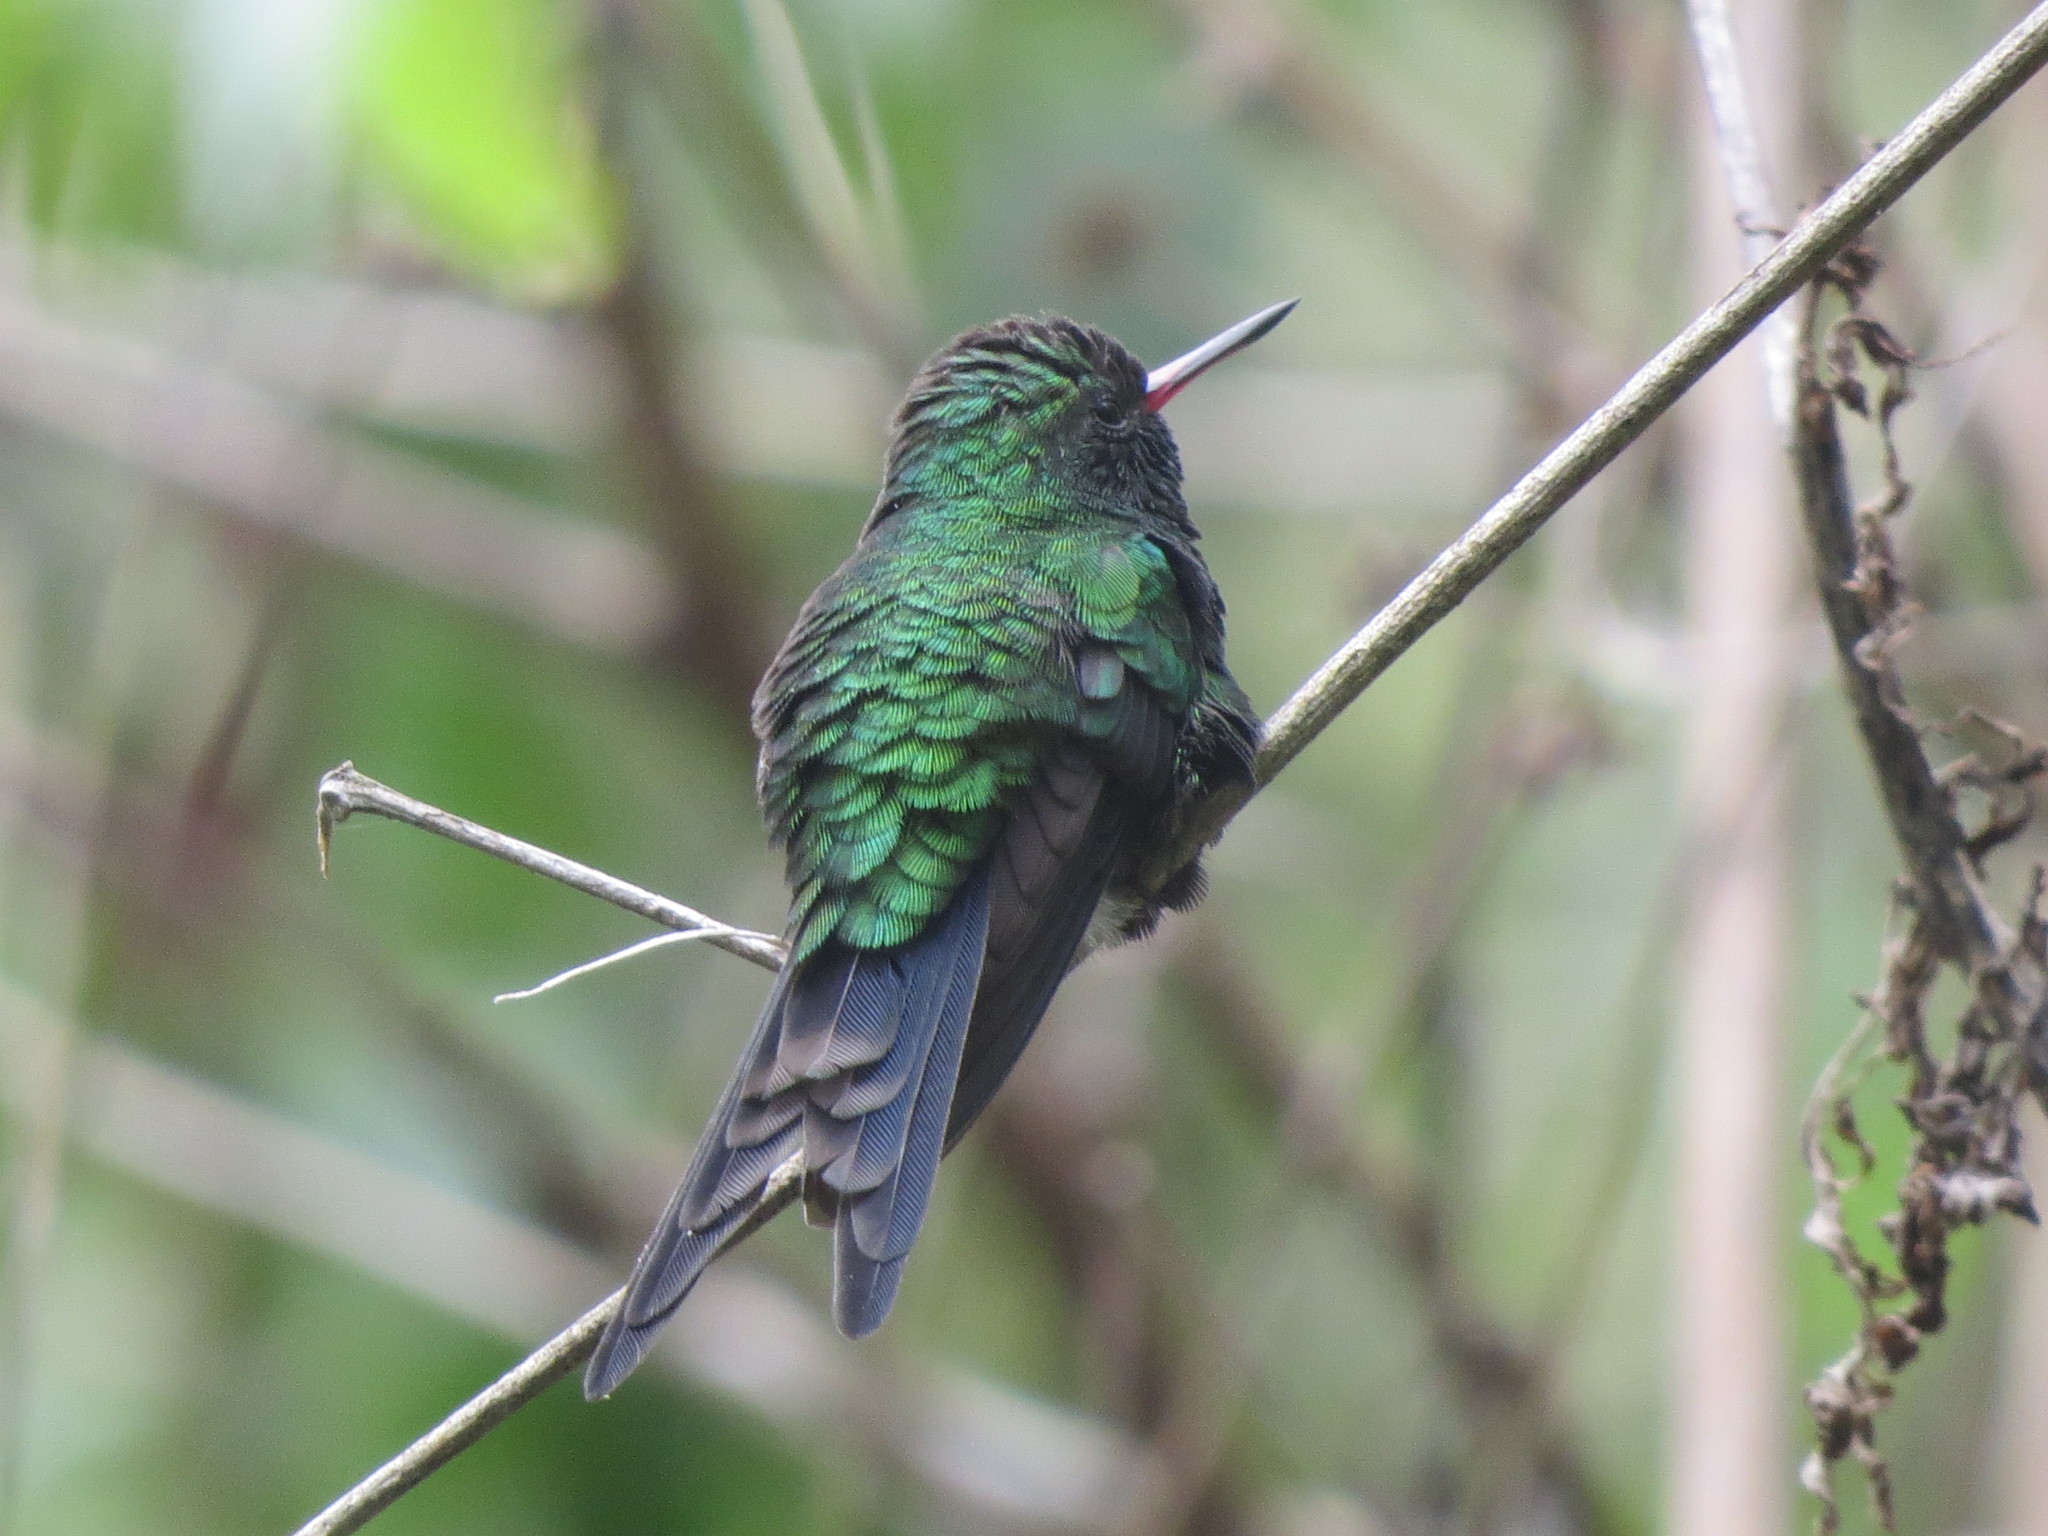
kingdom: Animalia
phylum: Chordata
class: Aves
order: Apodiformes
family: Trochilidae
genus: Cynanthus
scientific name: Cynanthus canivetii
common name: Canivet's emerald
